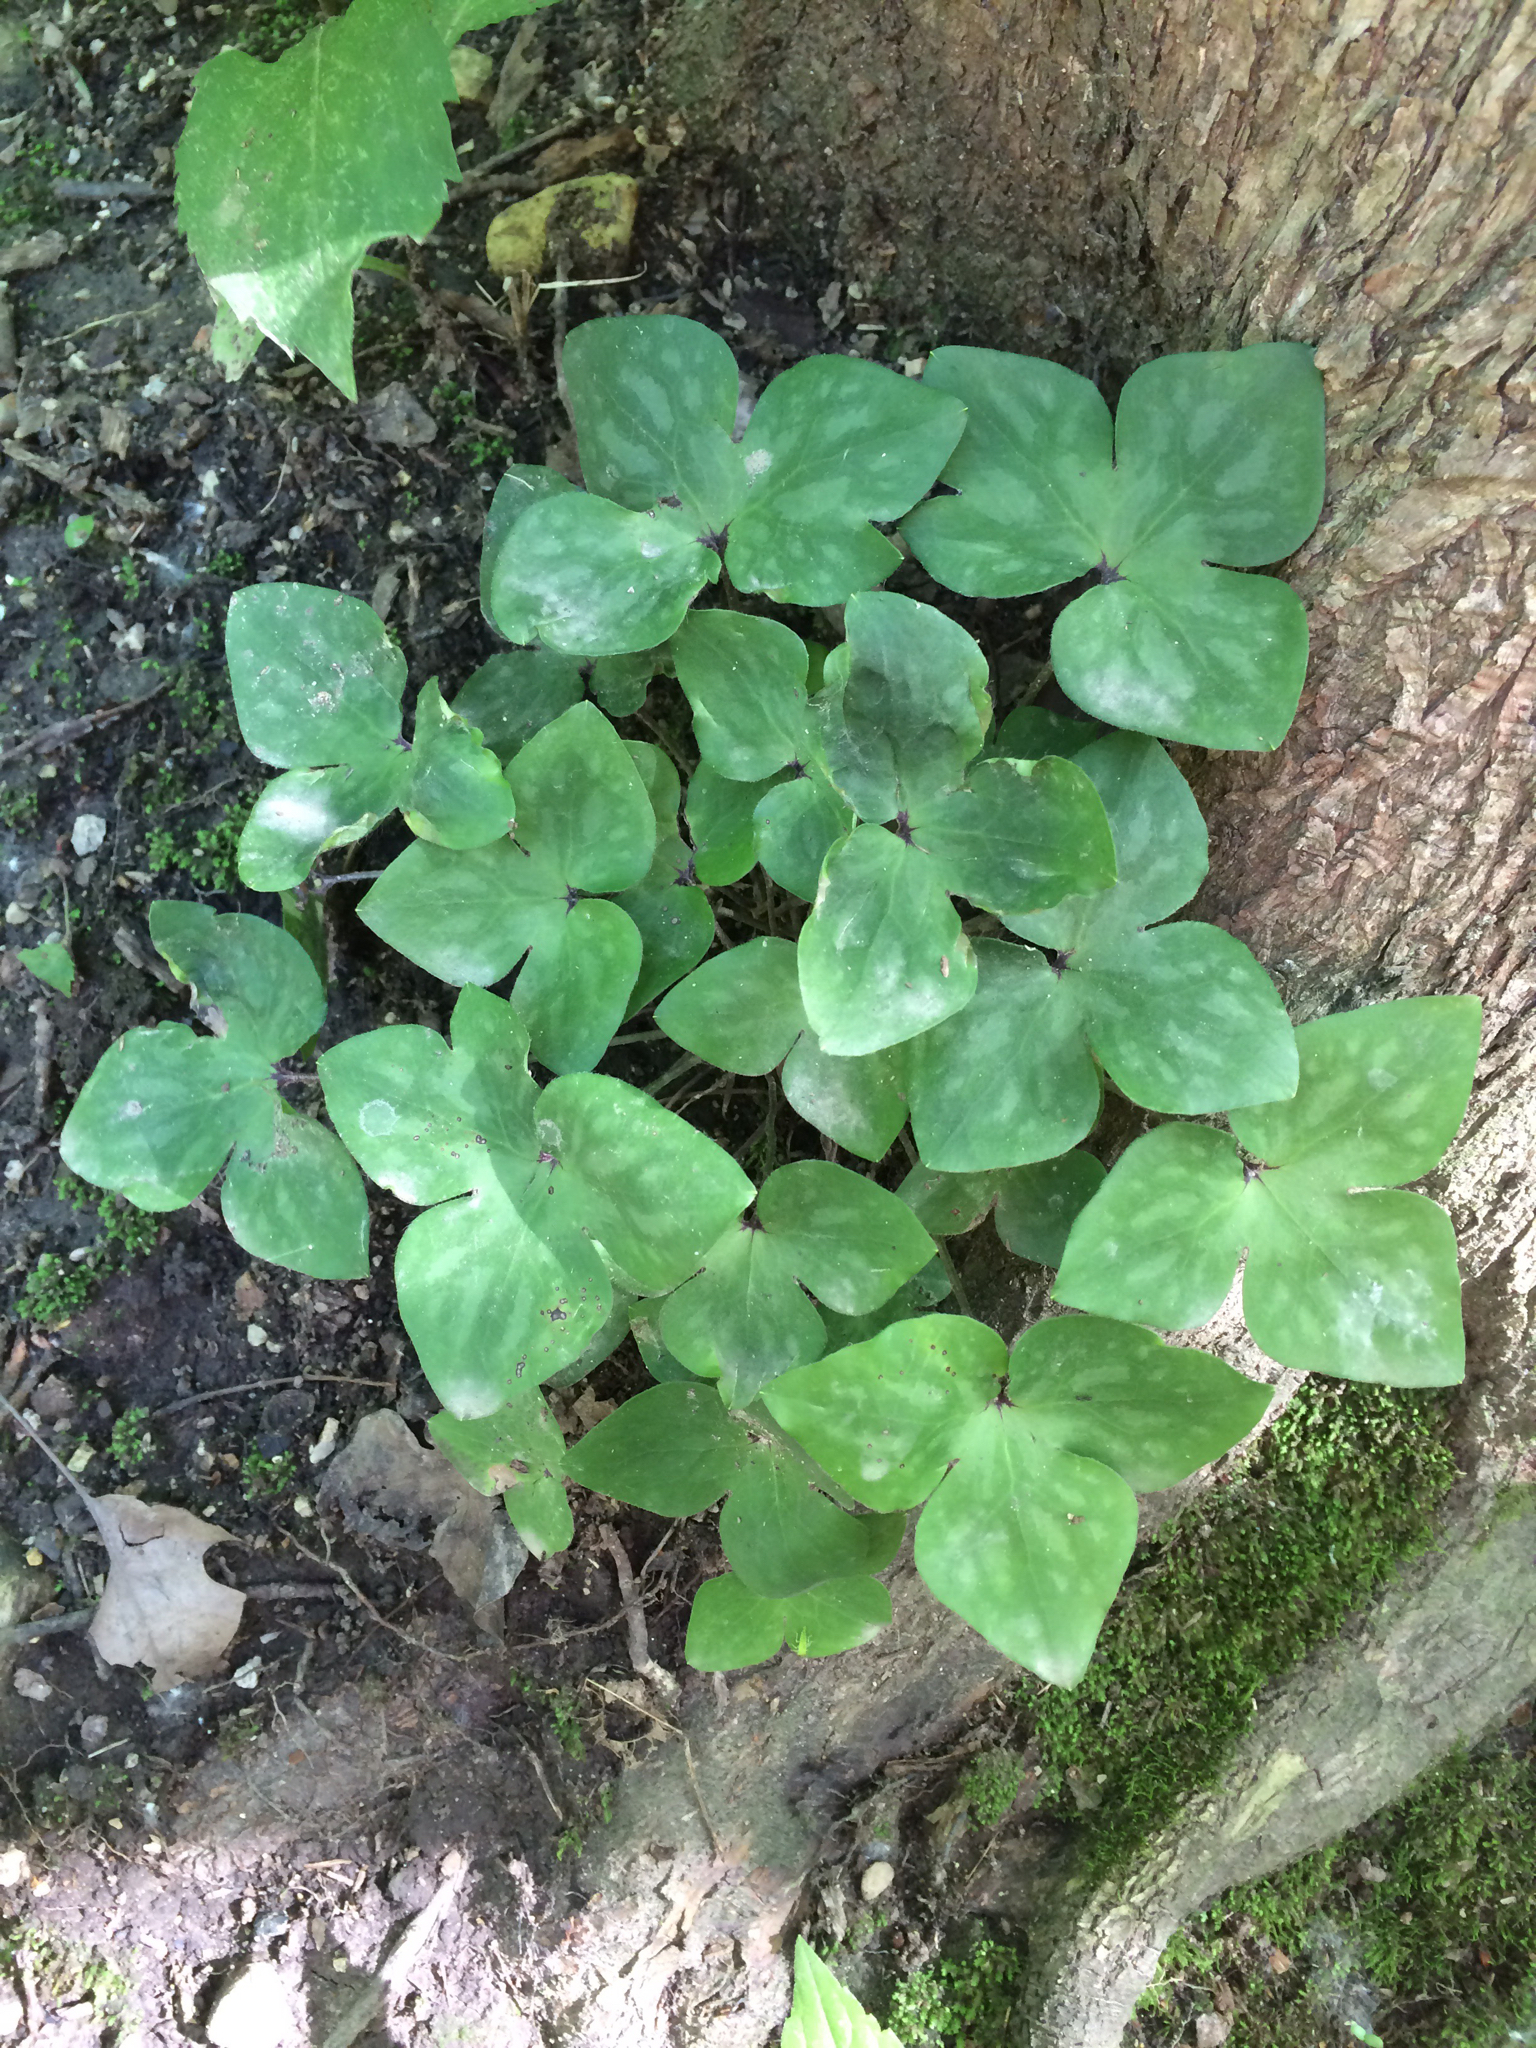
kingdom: Plantae
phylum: Tracheophyta
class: Magnoliopsida
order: Ranunculales
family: Ranunculaceae
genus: Hepatica
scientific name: Hepatica acutiloba
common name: Sharp-lobed hepatica
